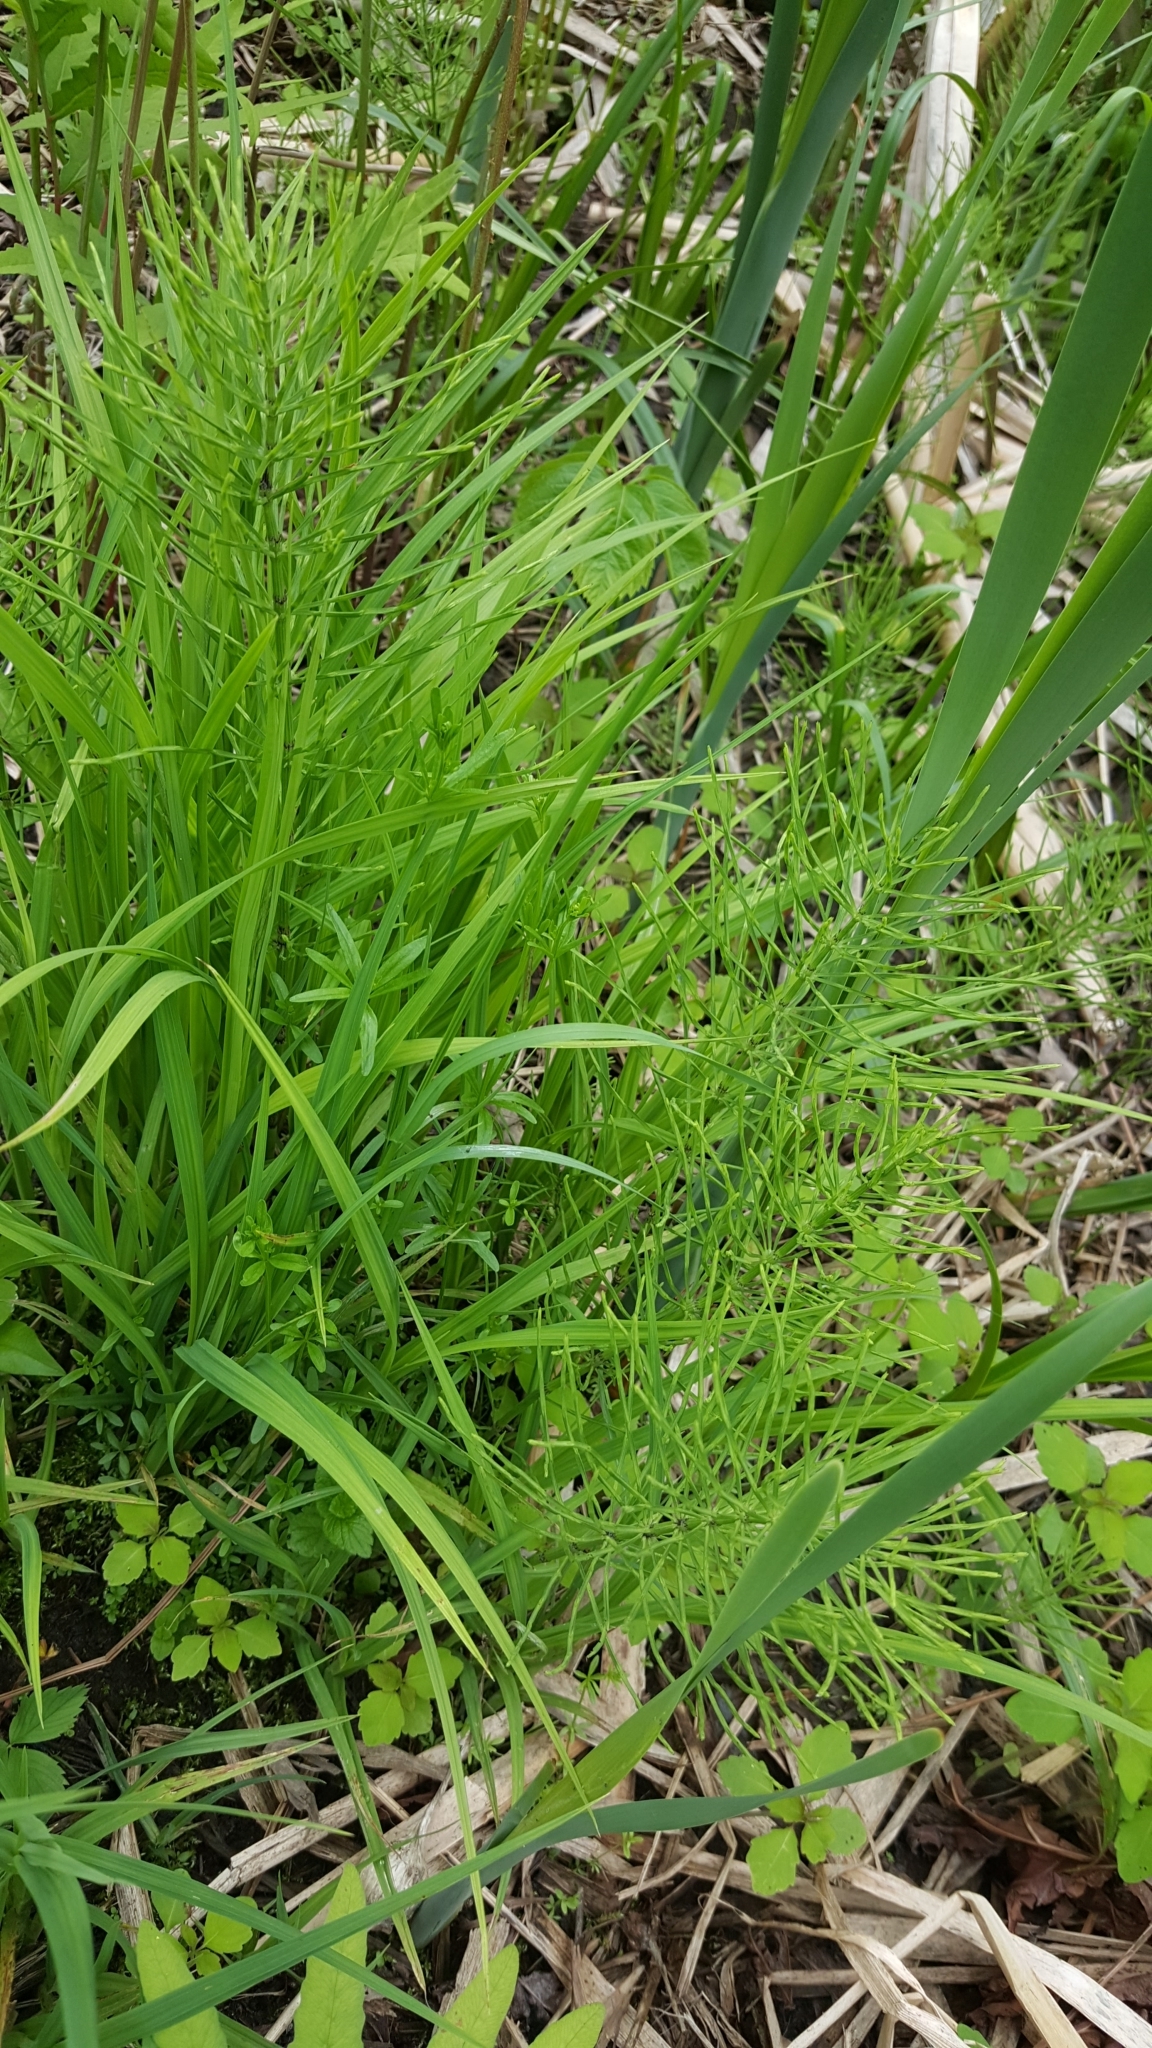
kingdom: Plantae
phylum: Tracheophyta
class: Polypodiopsida
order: Equisetales
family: Equisetaceae
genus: Equisetum
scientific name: Equisetum arvense
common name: Field horsetail
